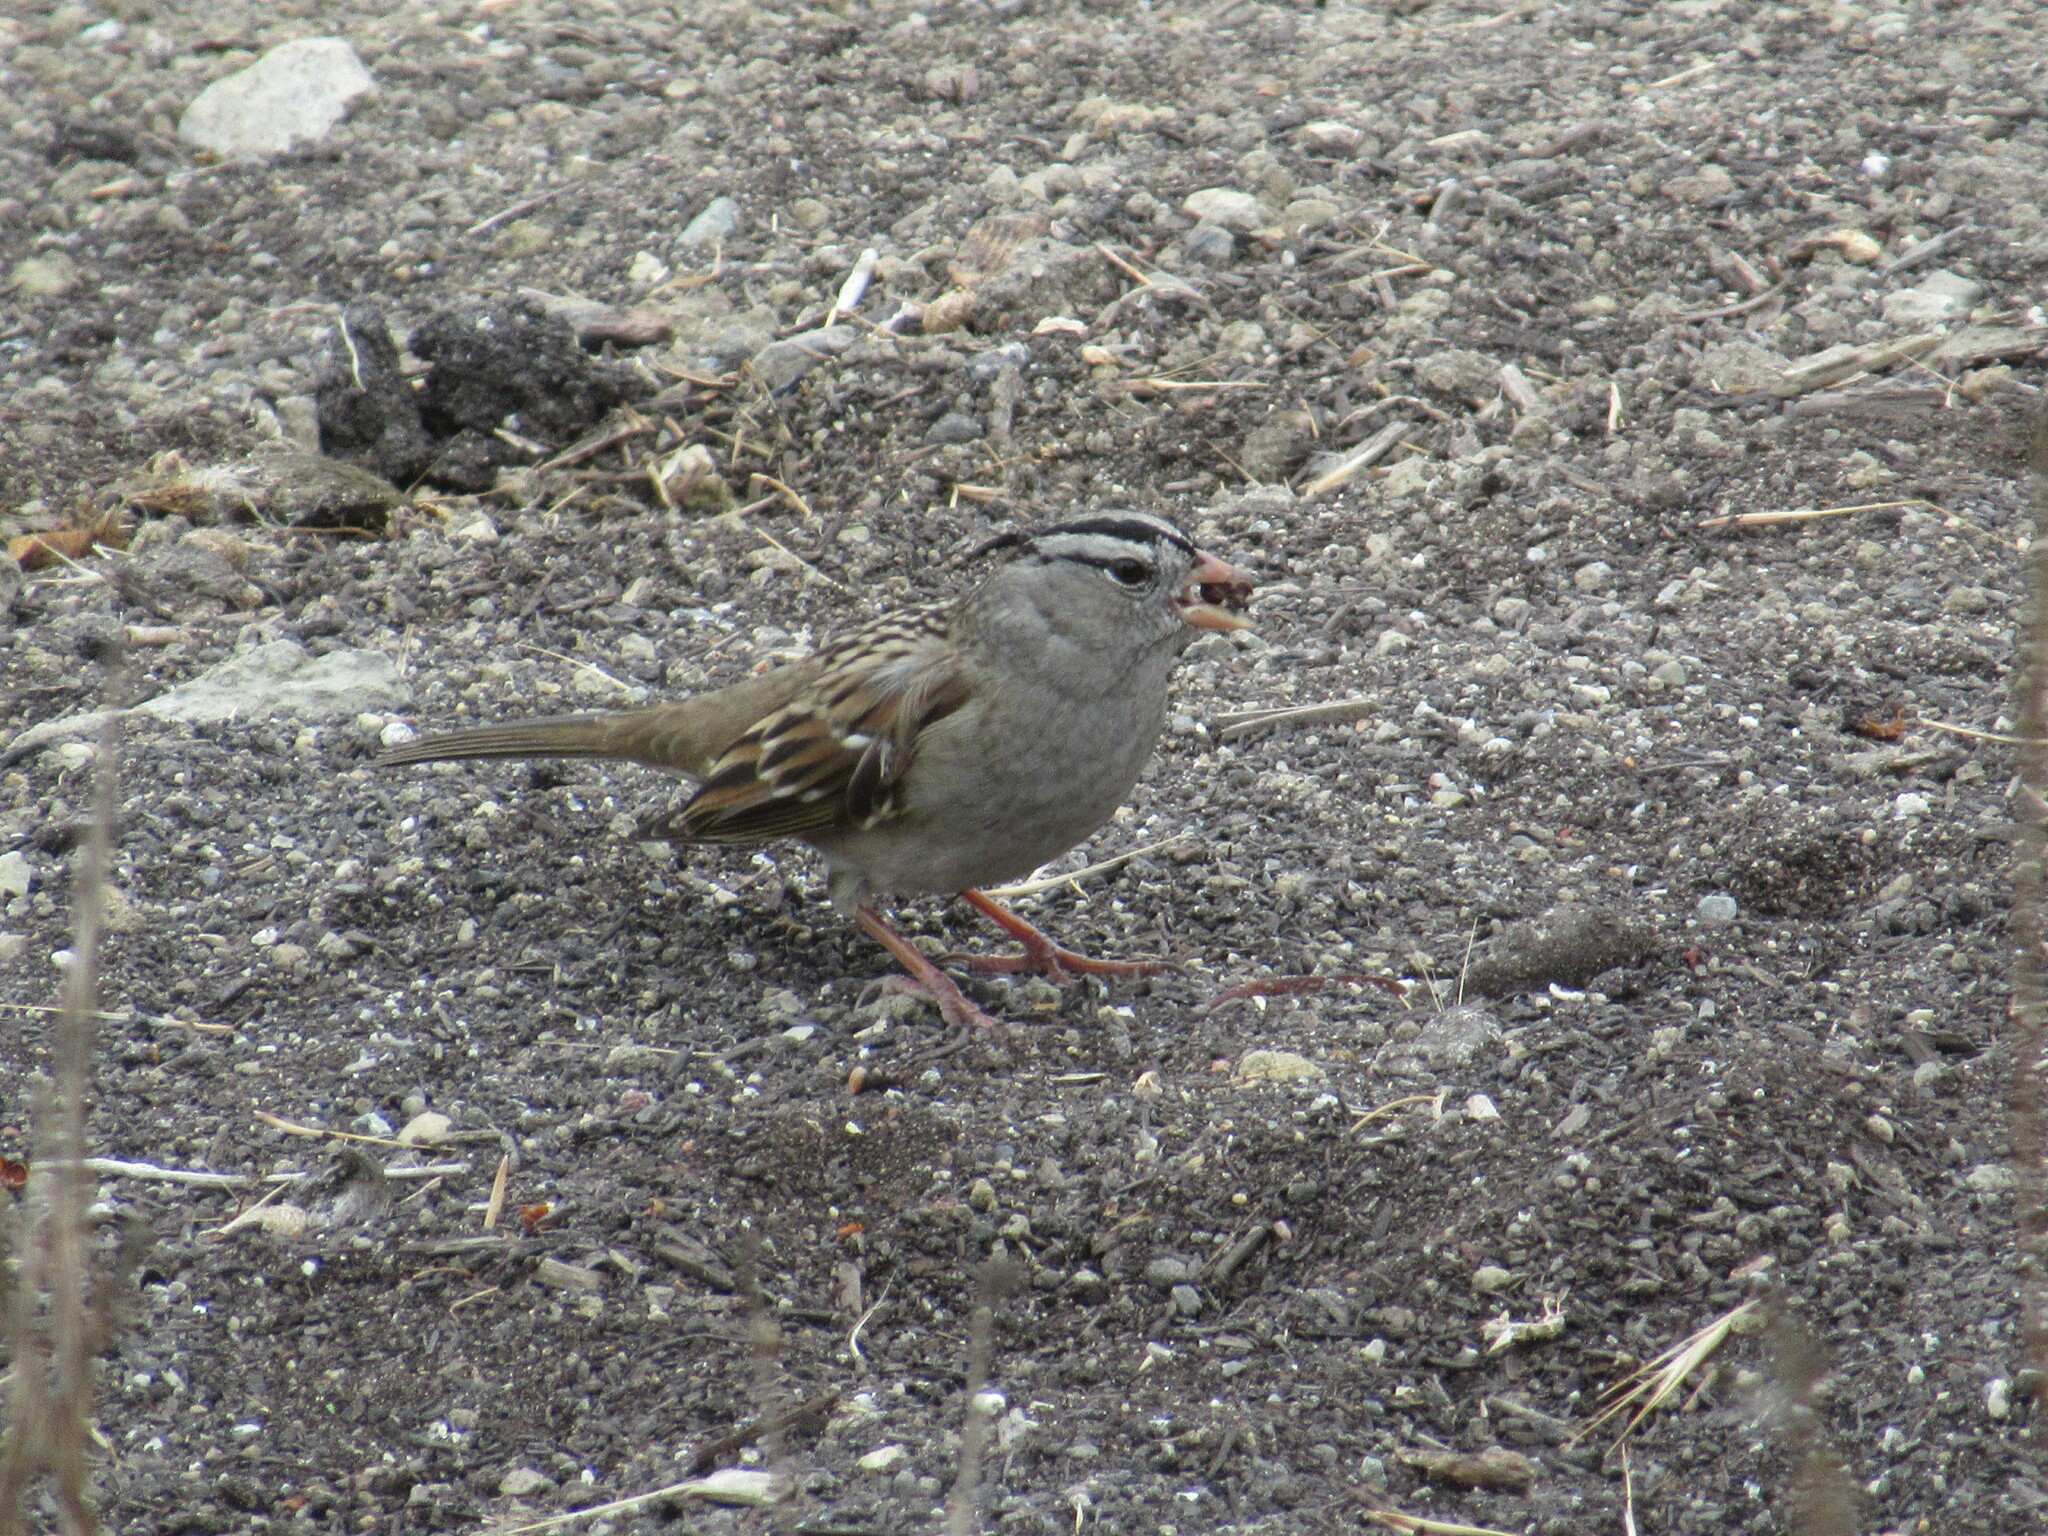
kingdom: Animalia
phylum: Chordata
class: Aves
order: Passeriformes
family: Passerellidae
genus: Zonotrichia
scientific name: Zonotrichia leucophrys
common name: White-crowned sparrow
